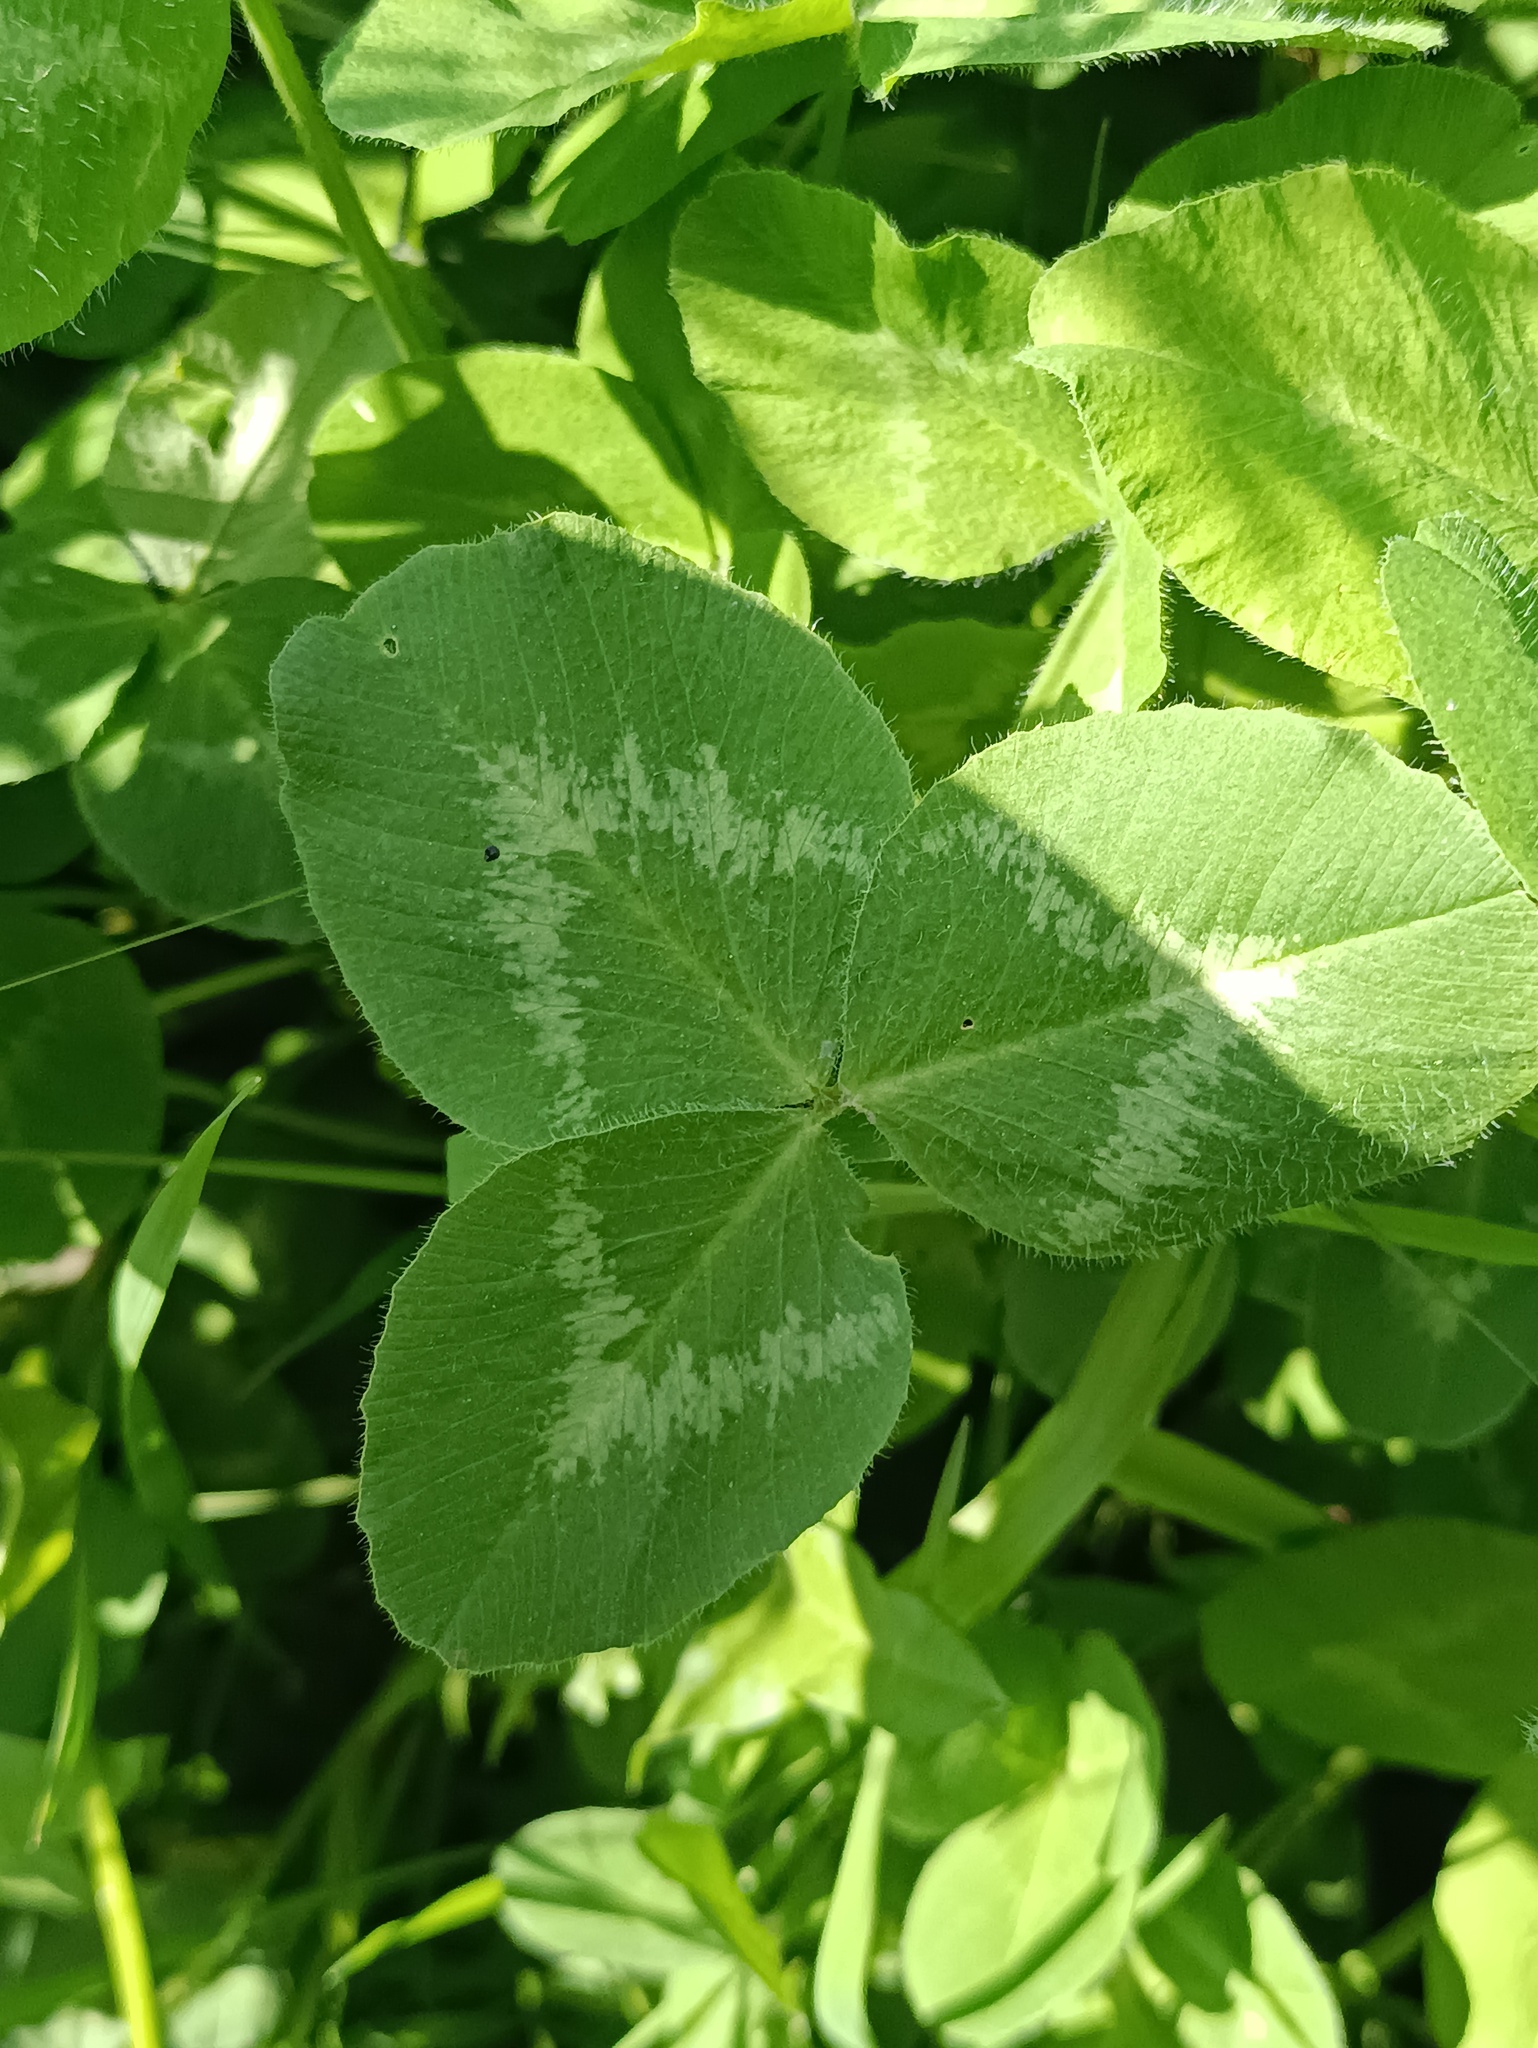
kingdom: Plantae
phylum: Tracheophyta
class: Magnoliopsida
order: Fabales
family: Fabaceae
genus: Trifolium
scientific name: Trifolium pratense
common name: Red clover
